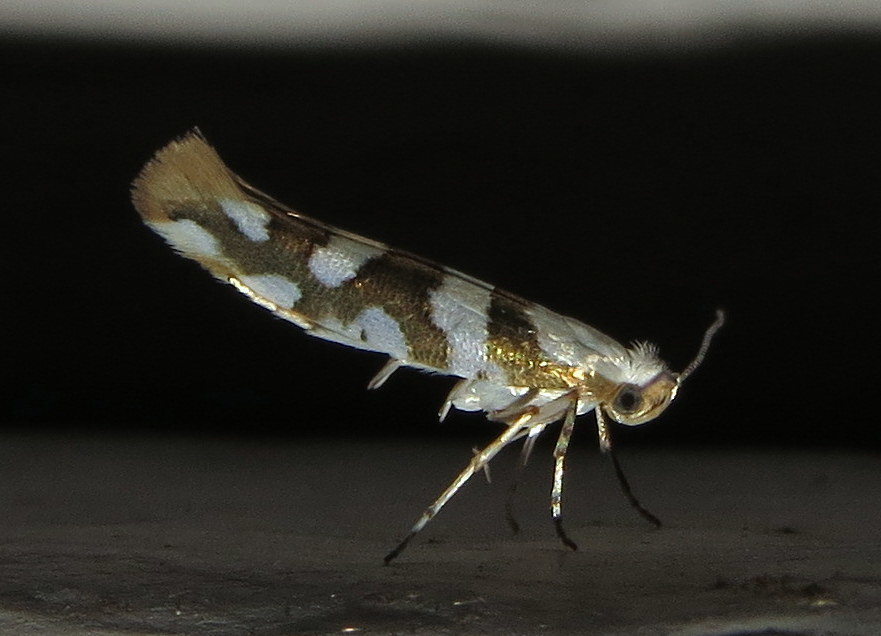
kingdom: Animalia
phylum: Arthropoda
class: Insecta
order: Lepidoptera
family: Argyresthiidae
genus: Argyresthia
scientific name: Argyresthia calliphanes
